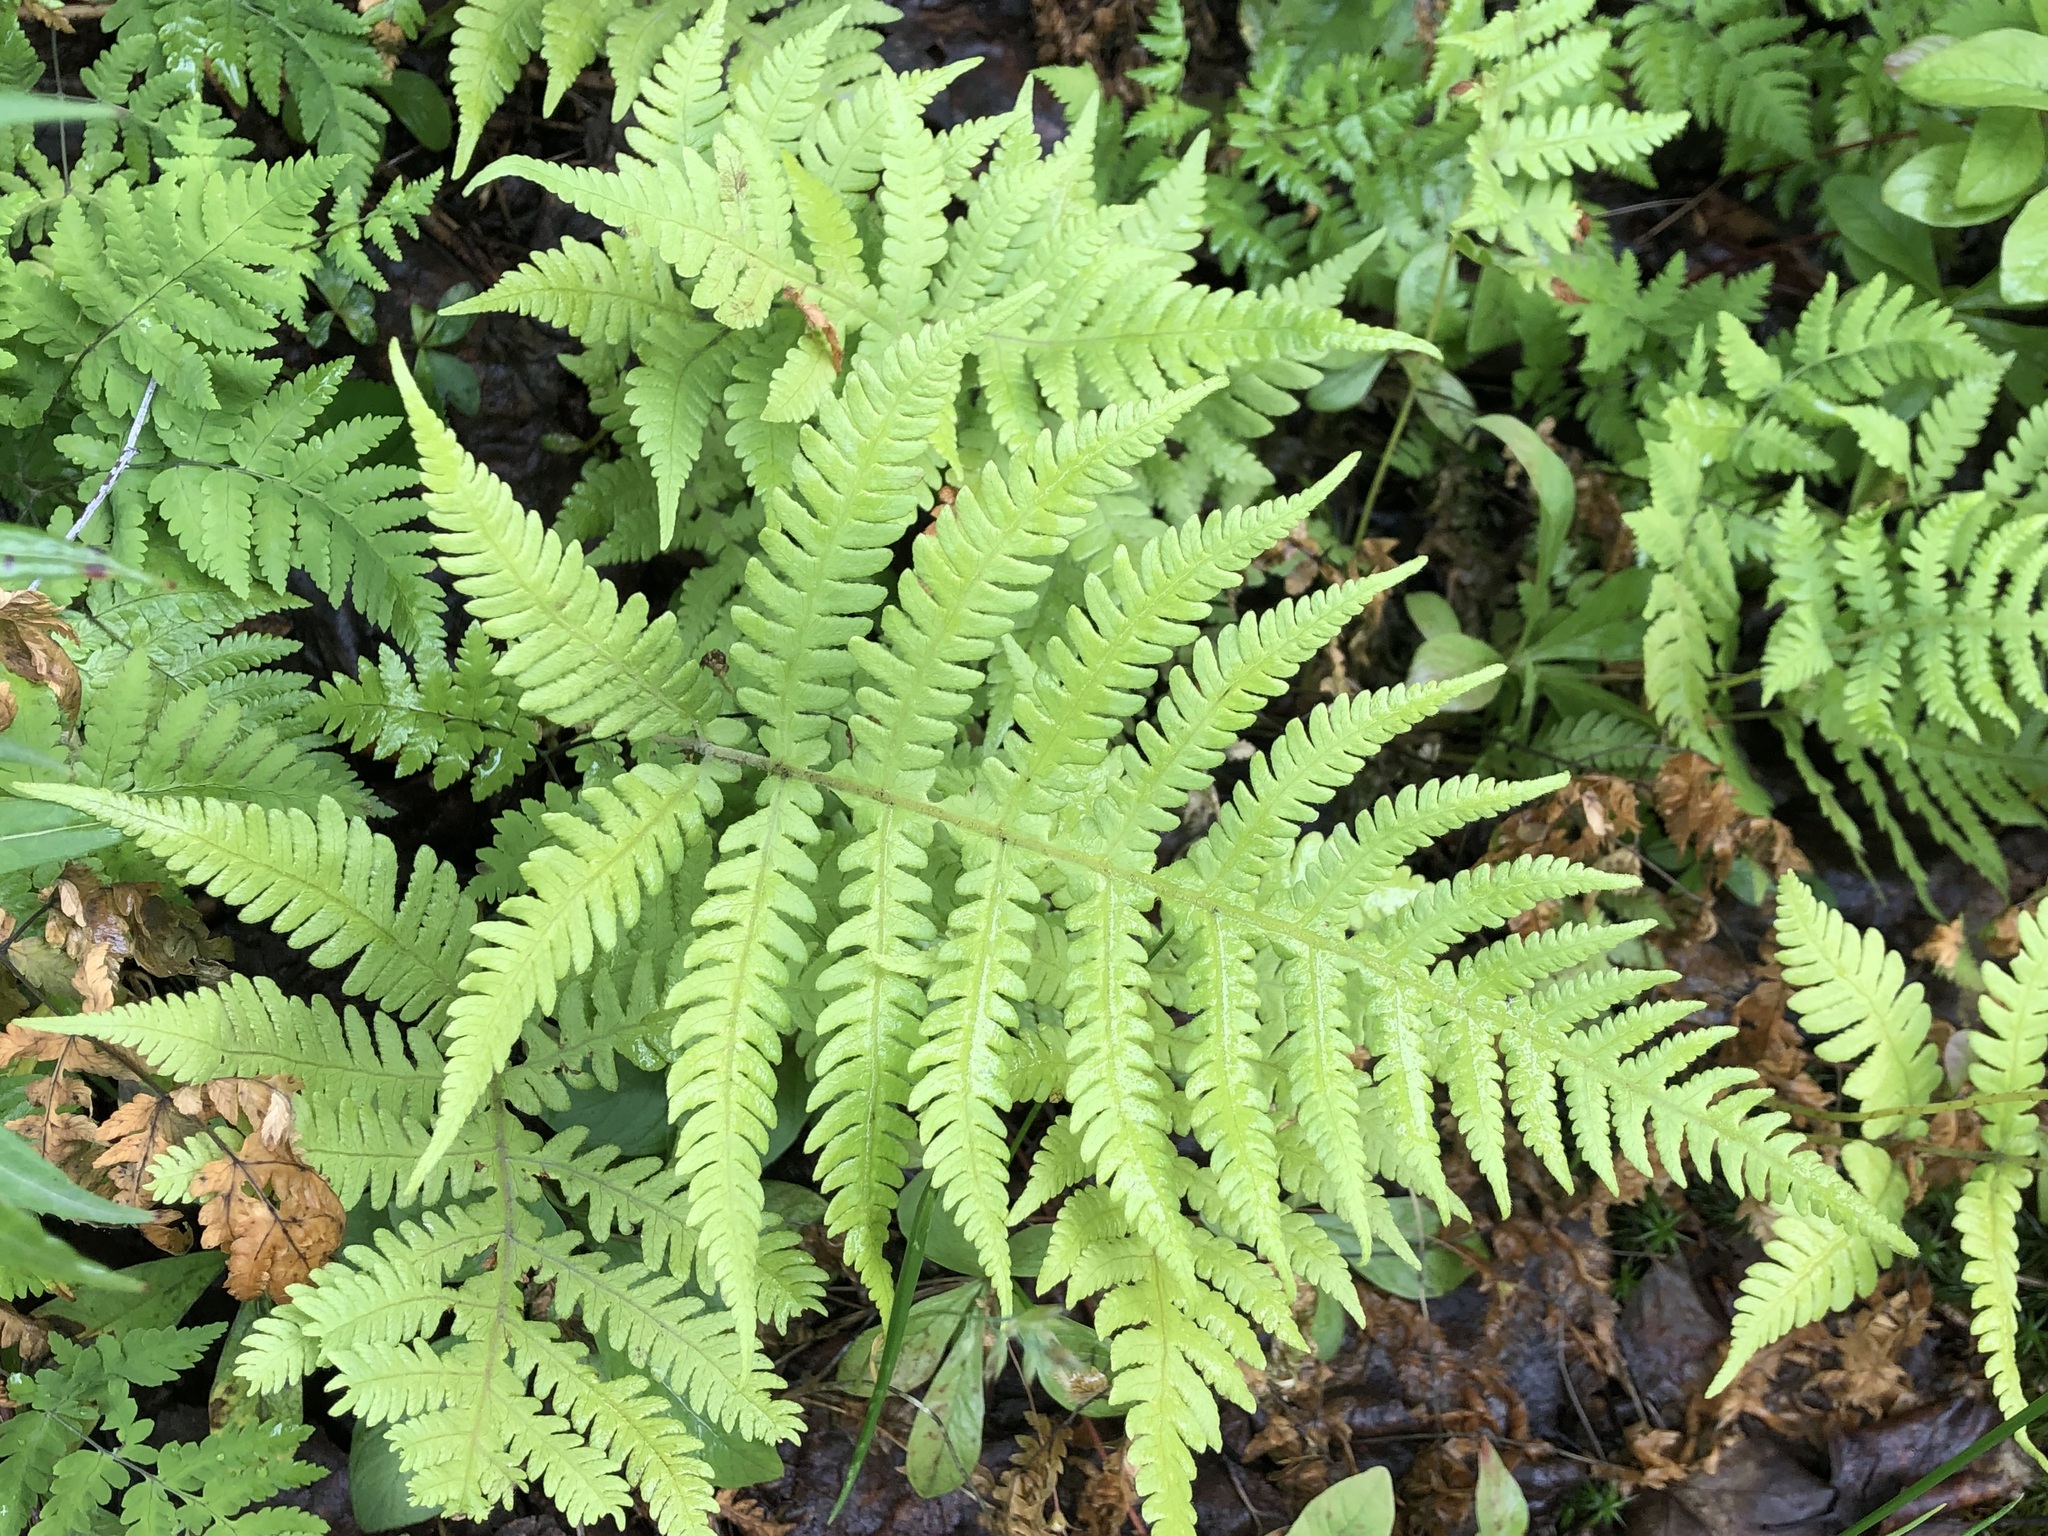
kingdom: Plantae
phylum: Tracheophyta
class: Polypodiopsida
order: Polypodiales
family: Thelypteridaceae
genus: Phegopteris
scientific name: Phegopteris connectilis
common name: Beech fern
